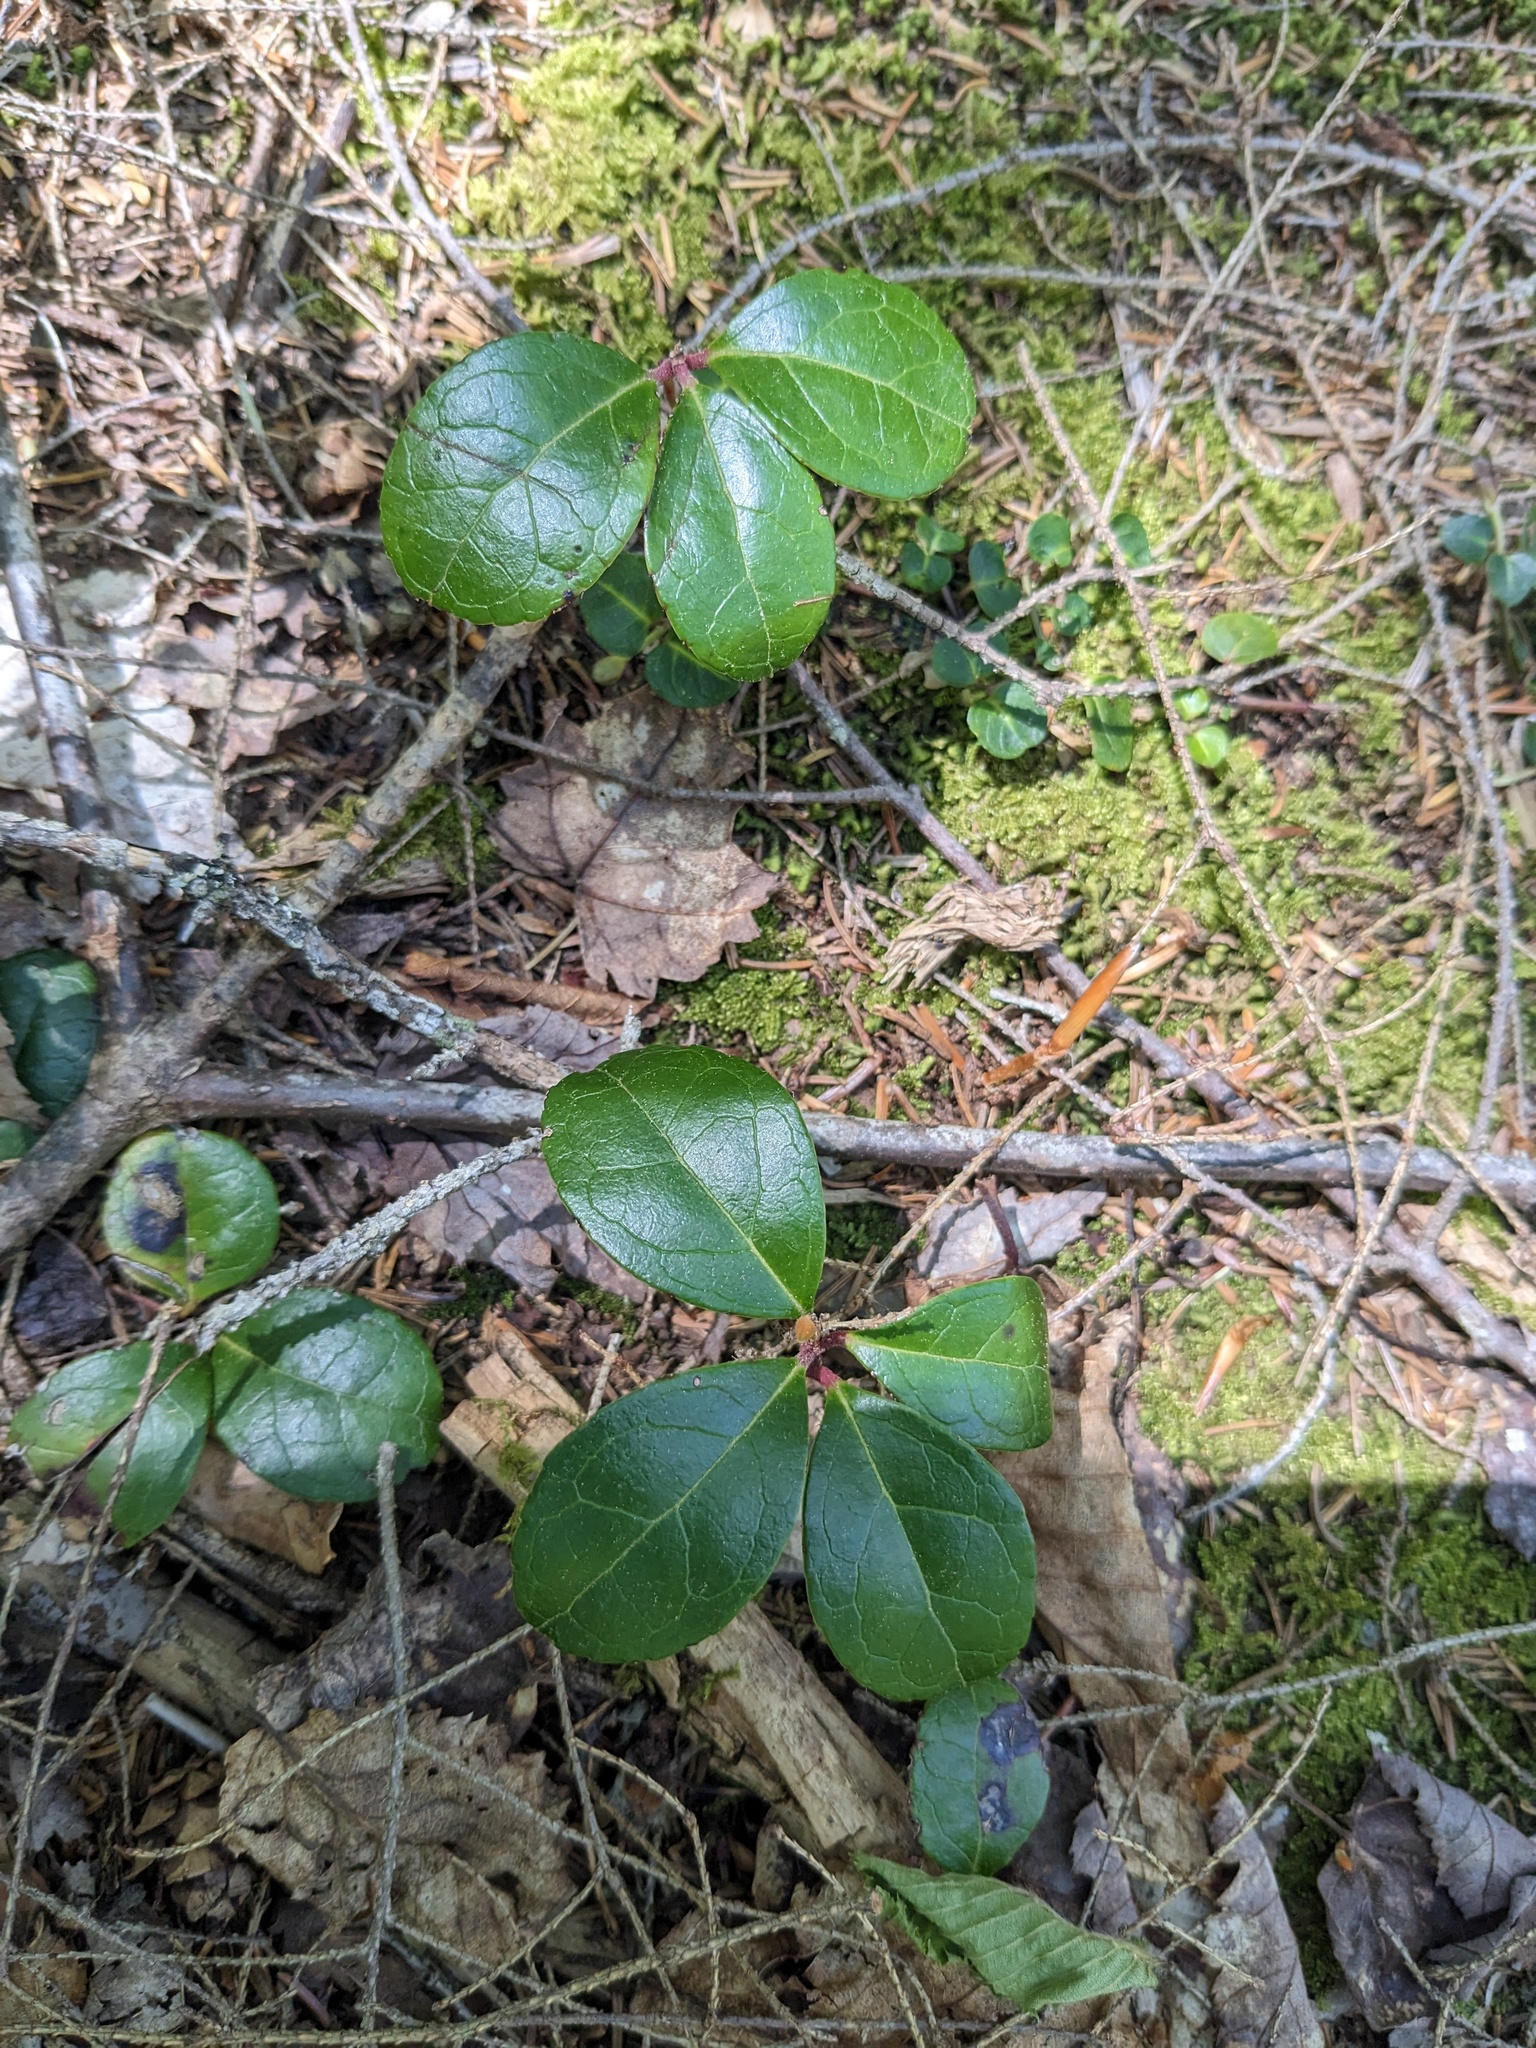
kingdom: Plantae
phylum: Tracheophyta
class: Magnoliopsida
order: Ericales
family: Ericaceae
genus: Gaultheria
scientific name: Gaultheria procumbens
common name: Checkerberry
